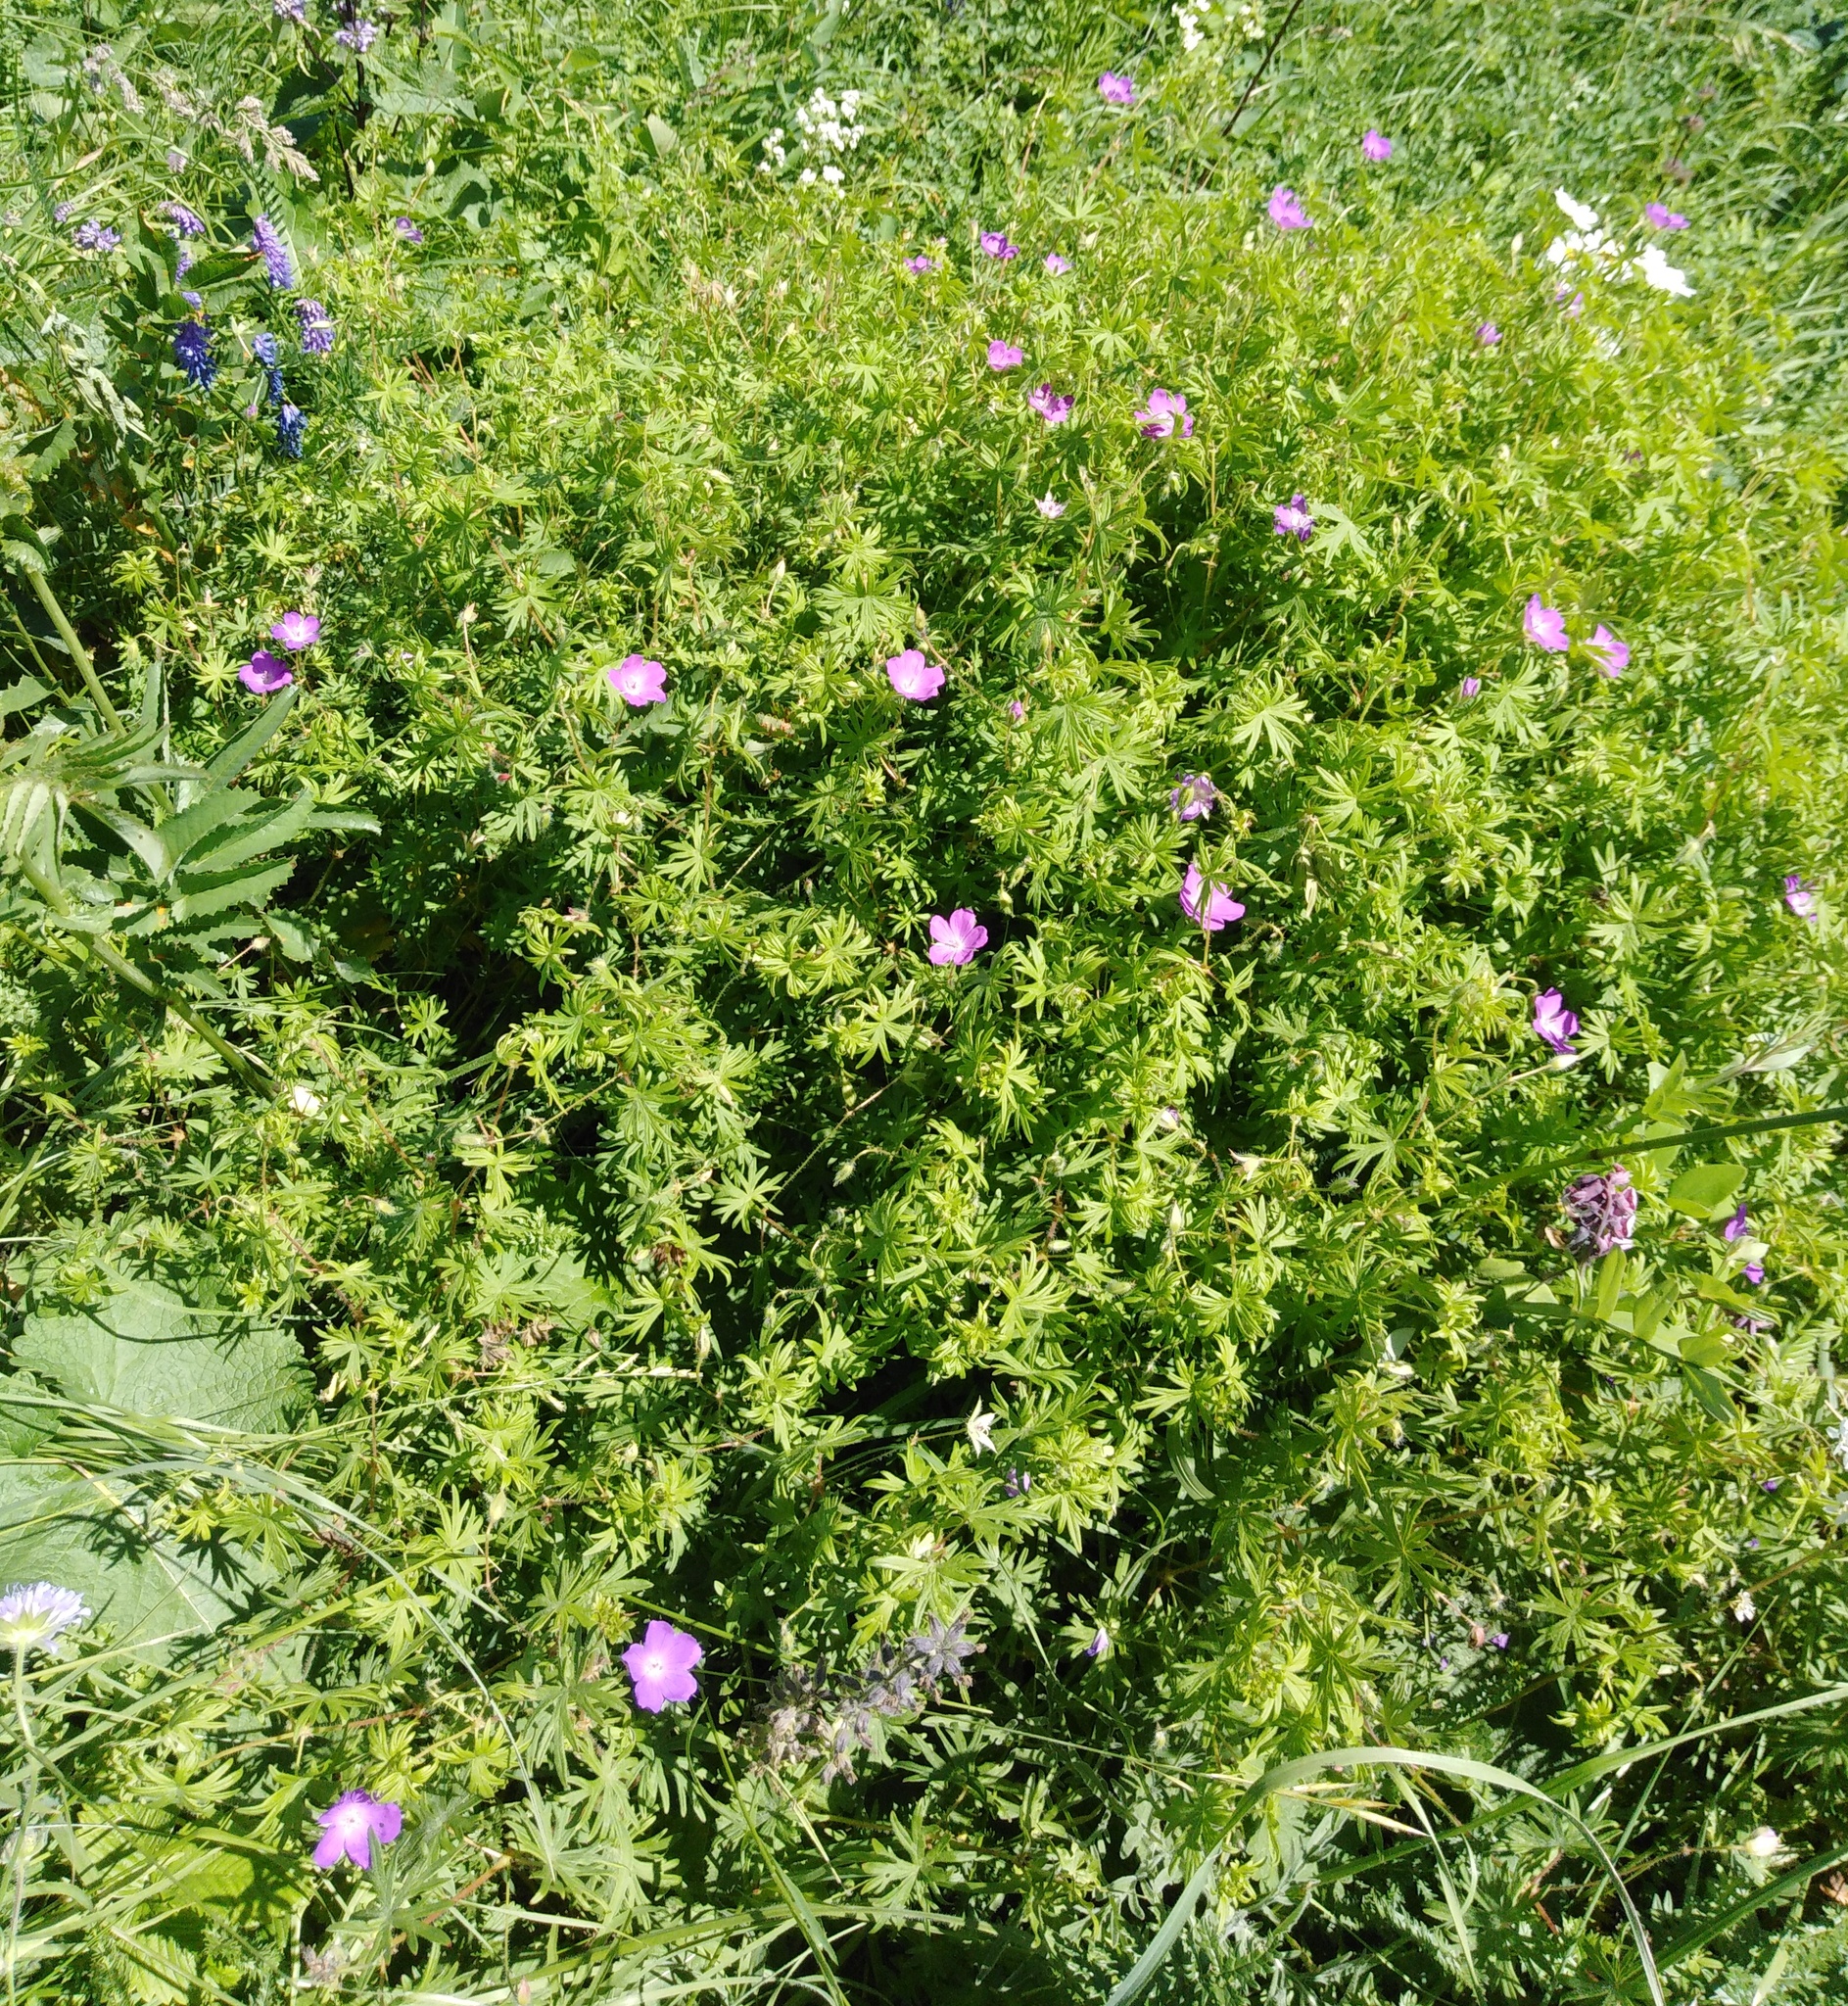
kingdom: Plantae
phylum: Tracheophyta
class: Magnoliopsida
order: Geraniales
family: Geraniaceae
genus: Geranium
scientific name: Geranium sanguineum
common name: Bloody crane's-bill
